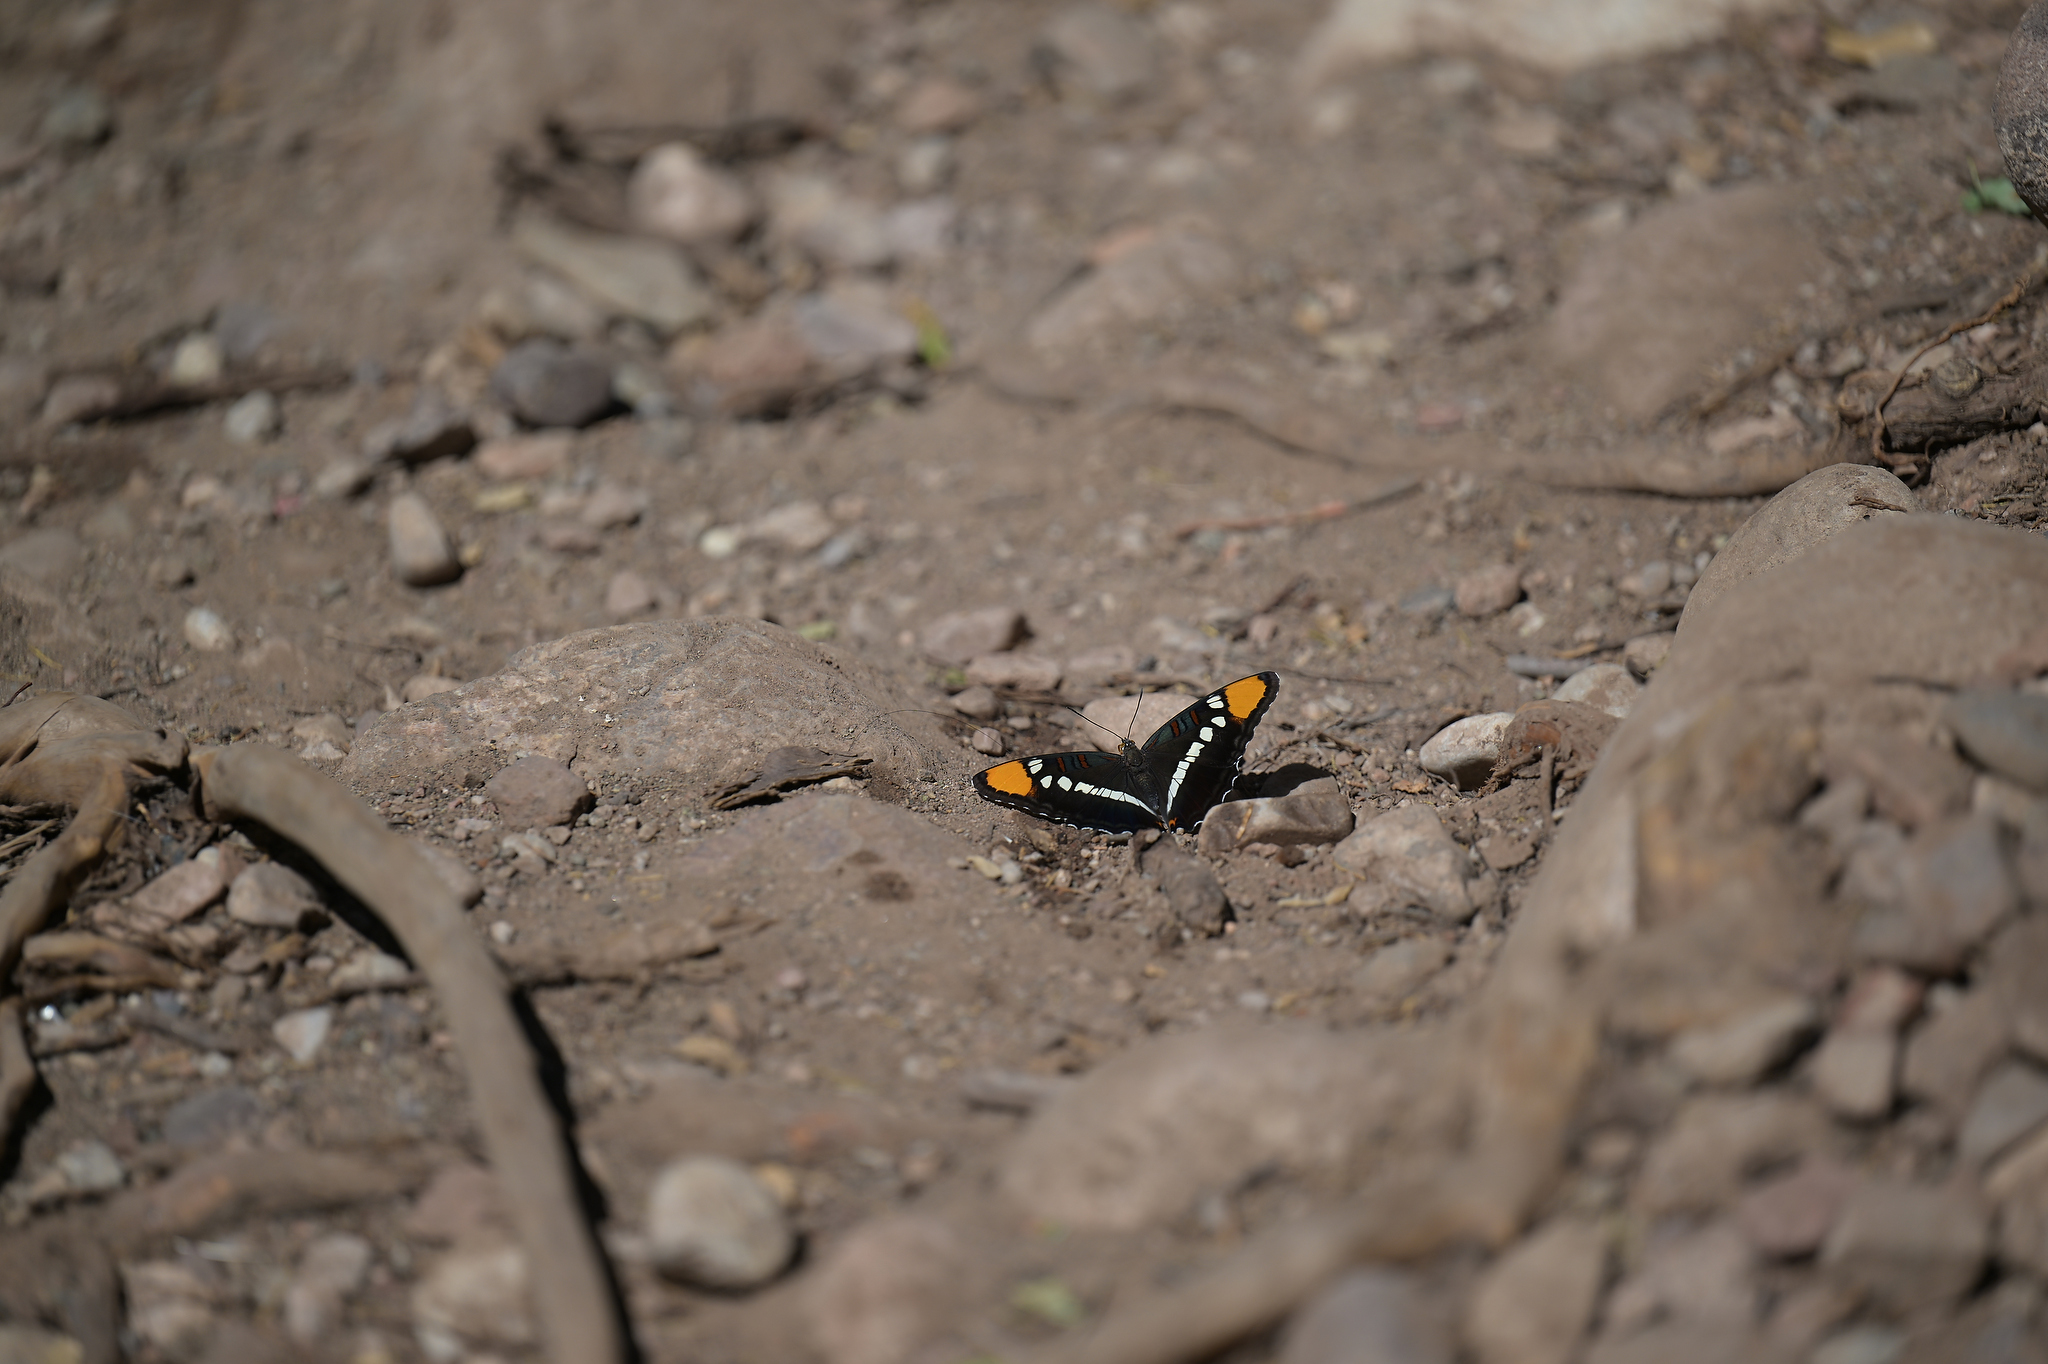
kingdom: Animalia
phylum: Arthropoda
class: Insecta
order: Lepidoptera
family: Nymphalidae
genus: Limenitis
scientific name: Limenitis bredowii
